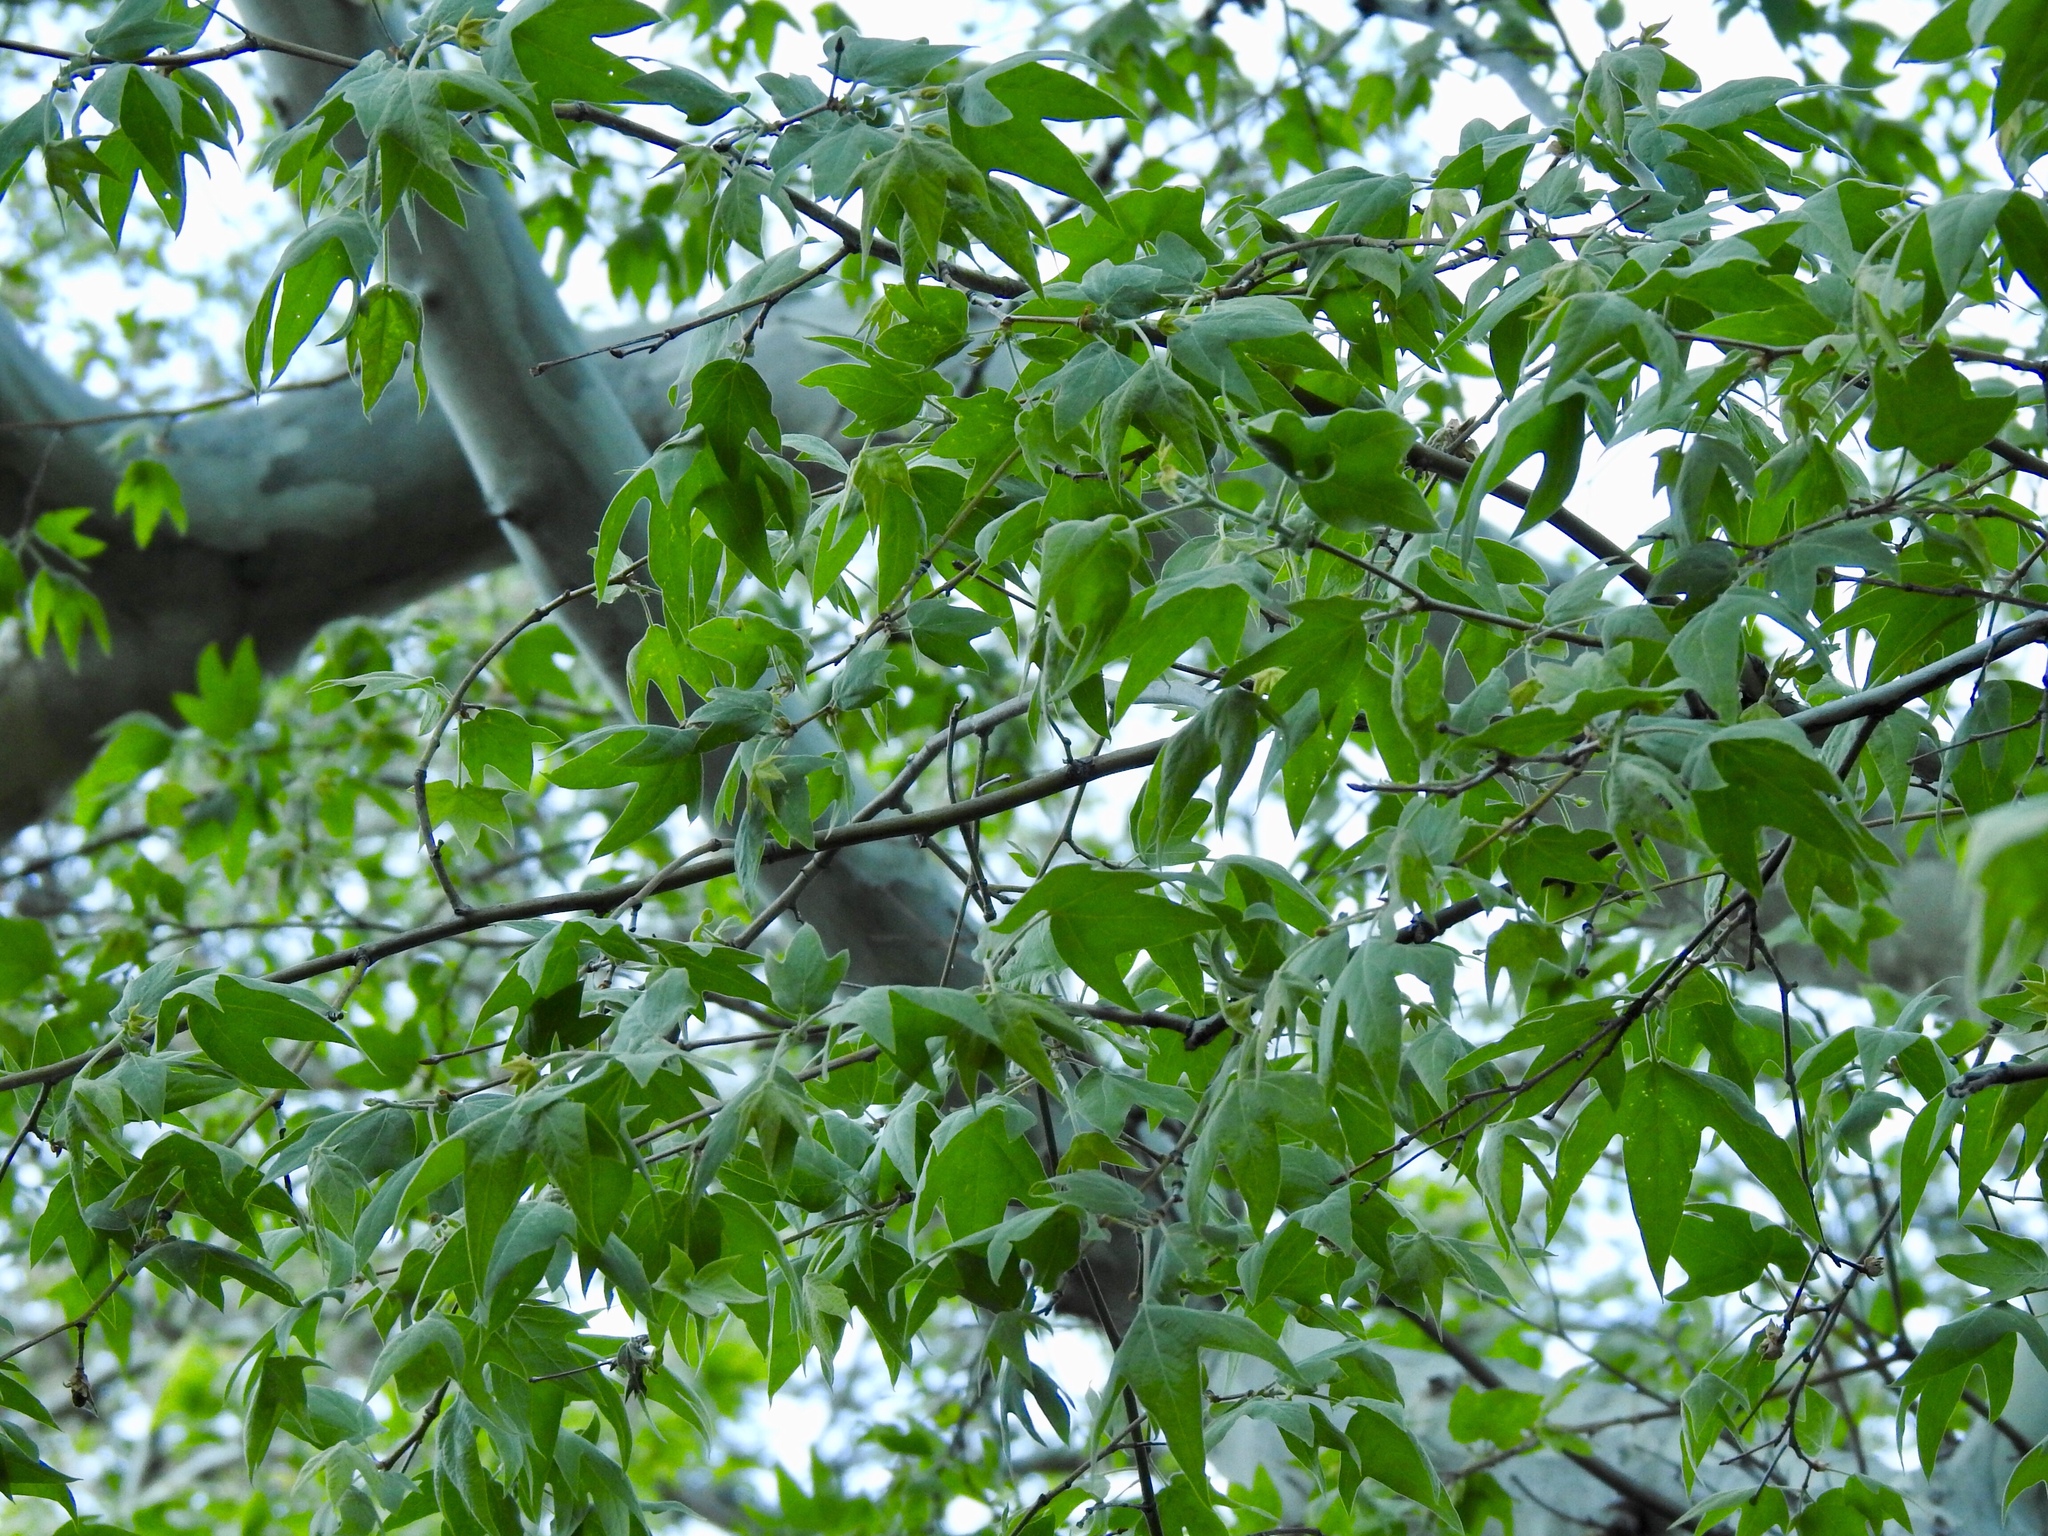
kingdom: Plantae
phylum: Tracheophyta
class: Magnoliopsida
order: Proteales
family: Platanaceae
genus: Platanus
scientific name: Platanus wrightii
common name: Arizona sycamore
